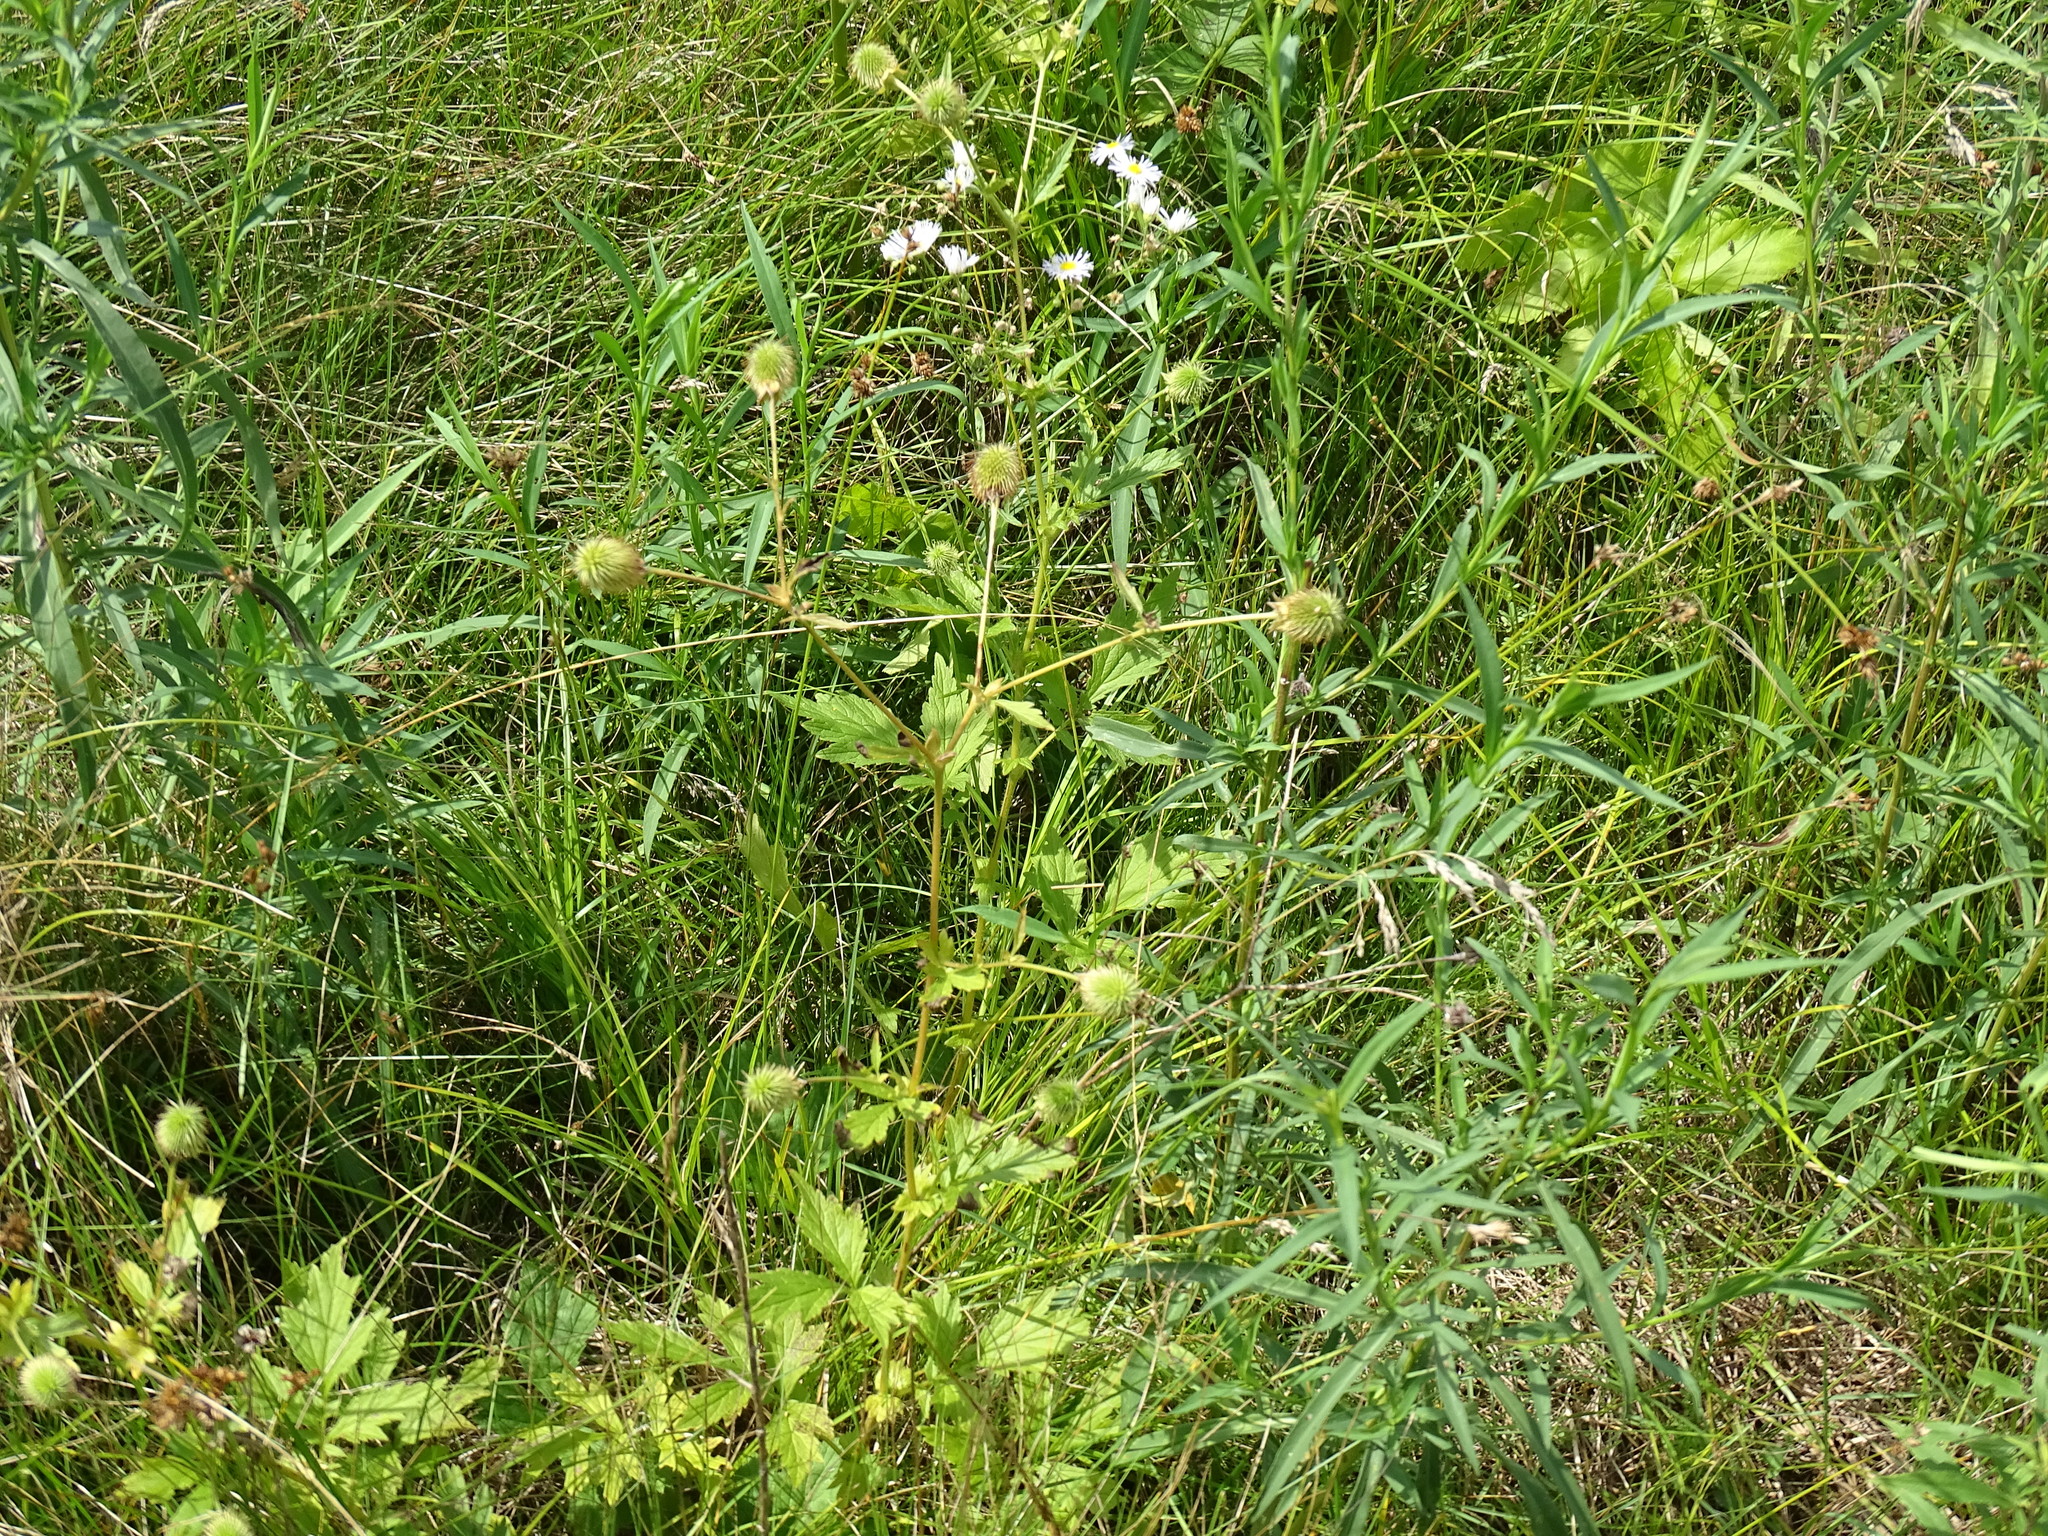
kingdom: Plantae
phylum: Tracheophyta
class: Magnoliopsida
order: Rosales
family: Rosaceae
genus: Geum
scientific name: Geum aleppicum
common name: Yellow avens
